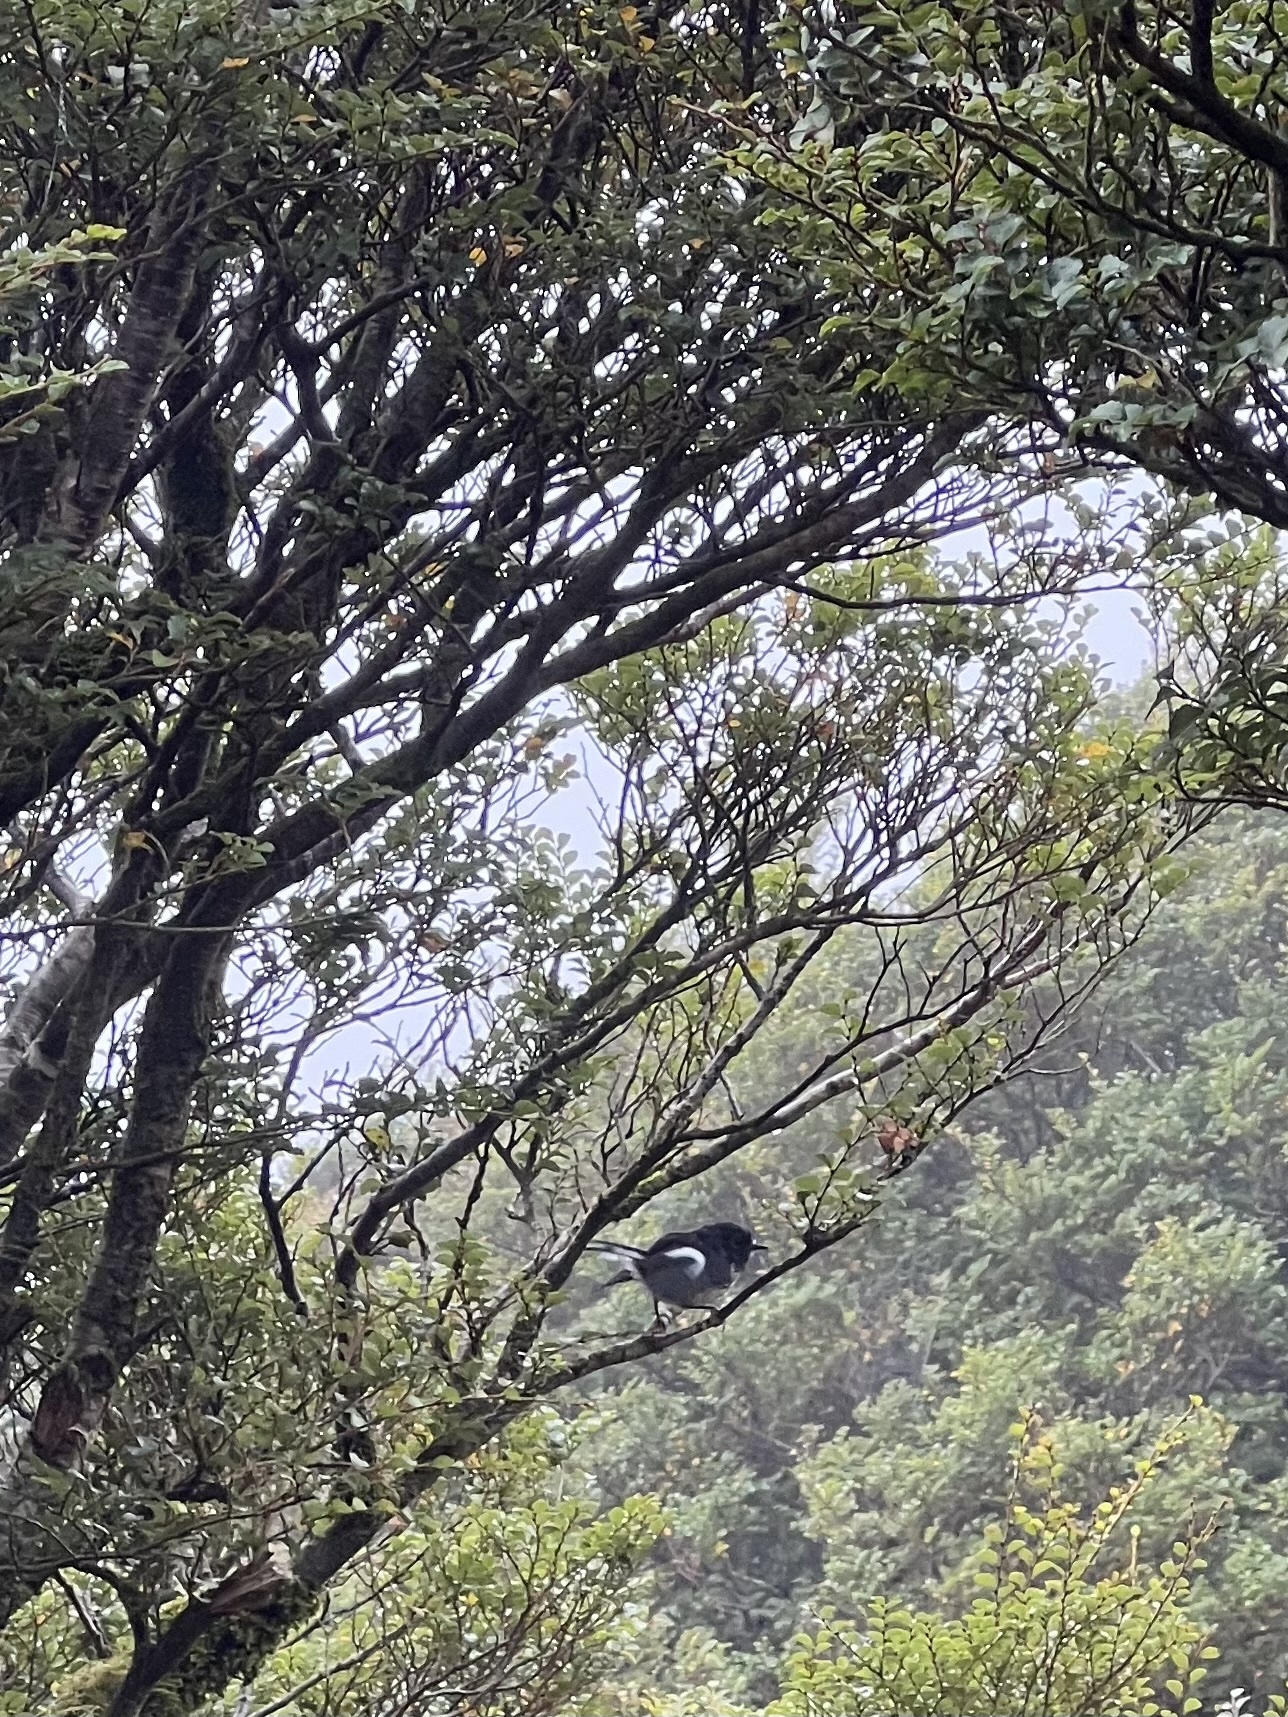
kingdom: Animalia
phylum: Chordata
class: Aves
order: Passeriformes
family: Petroicidae
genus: Petroica
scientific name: Petroica macrocephala
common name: Tomtit
